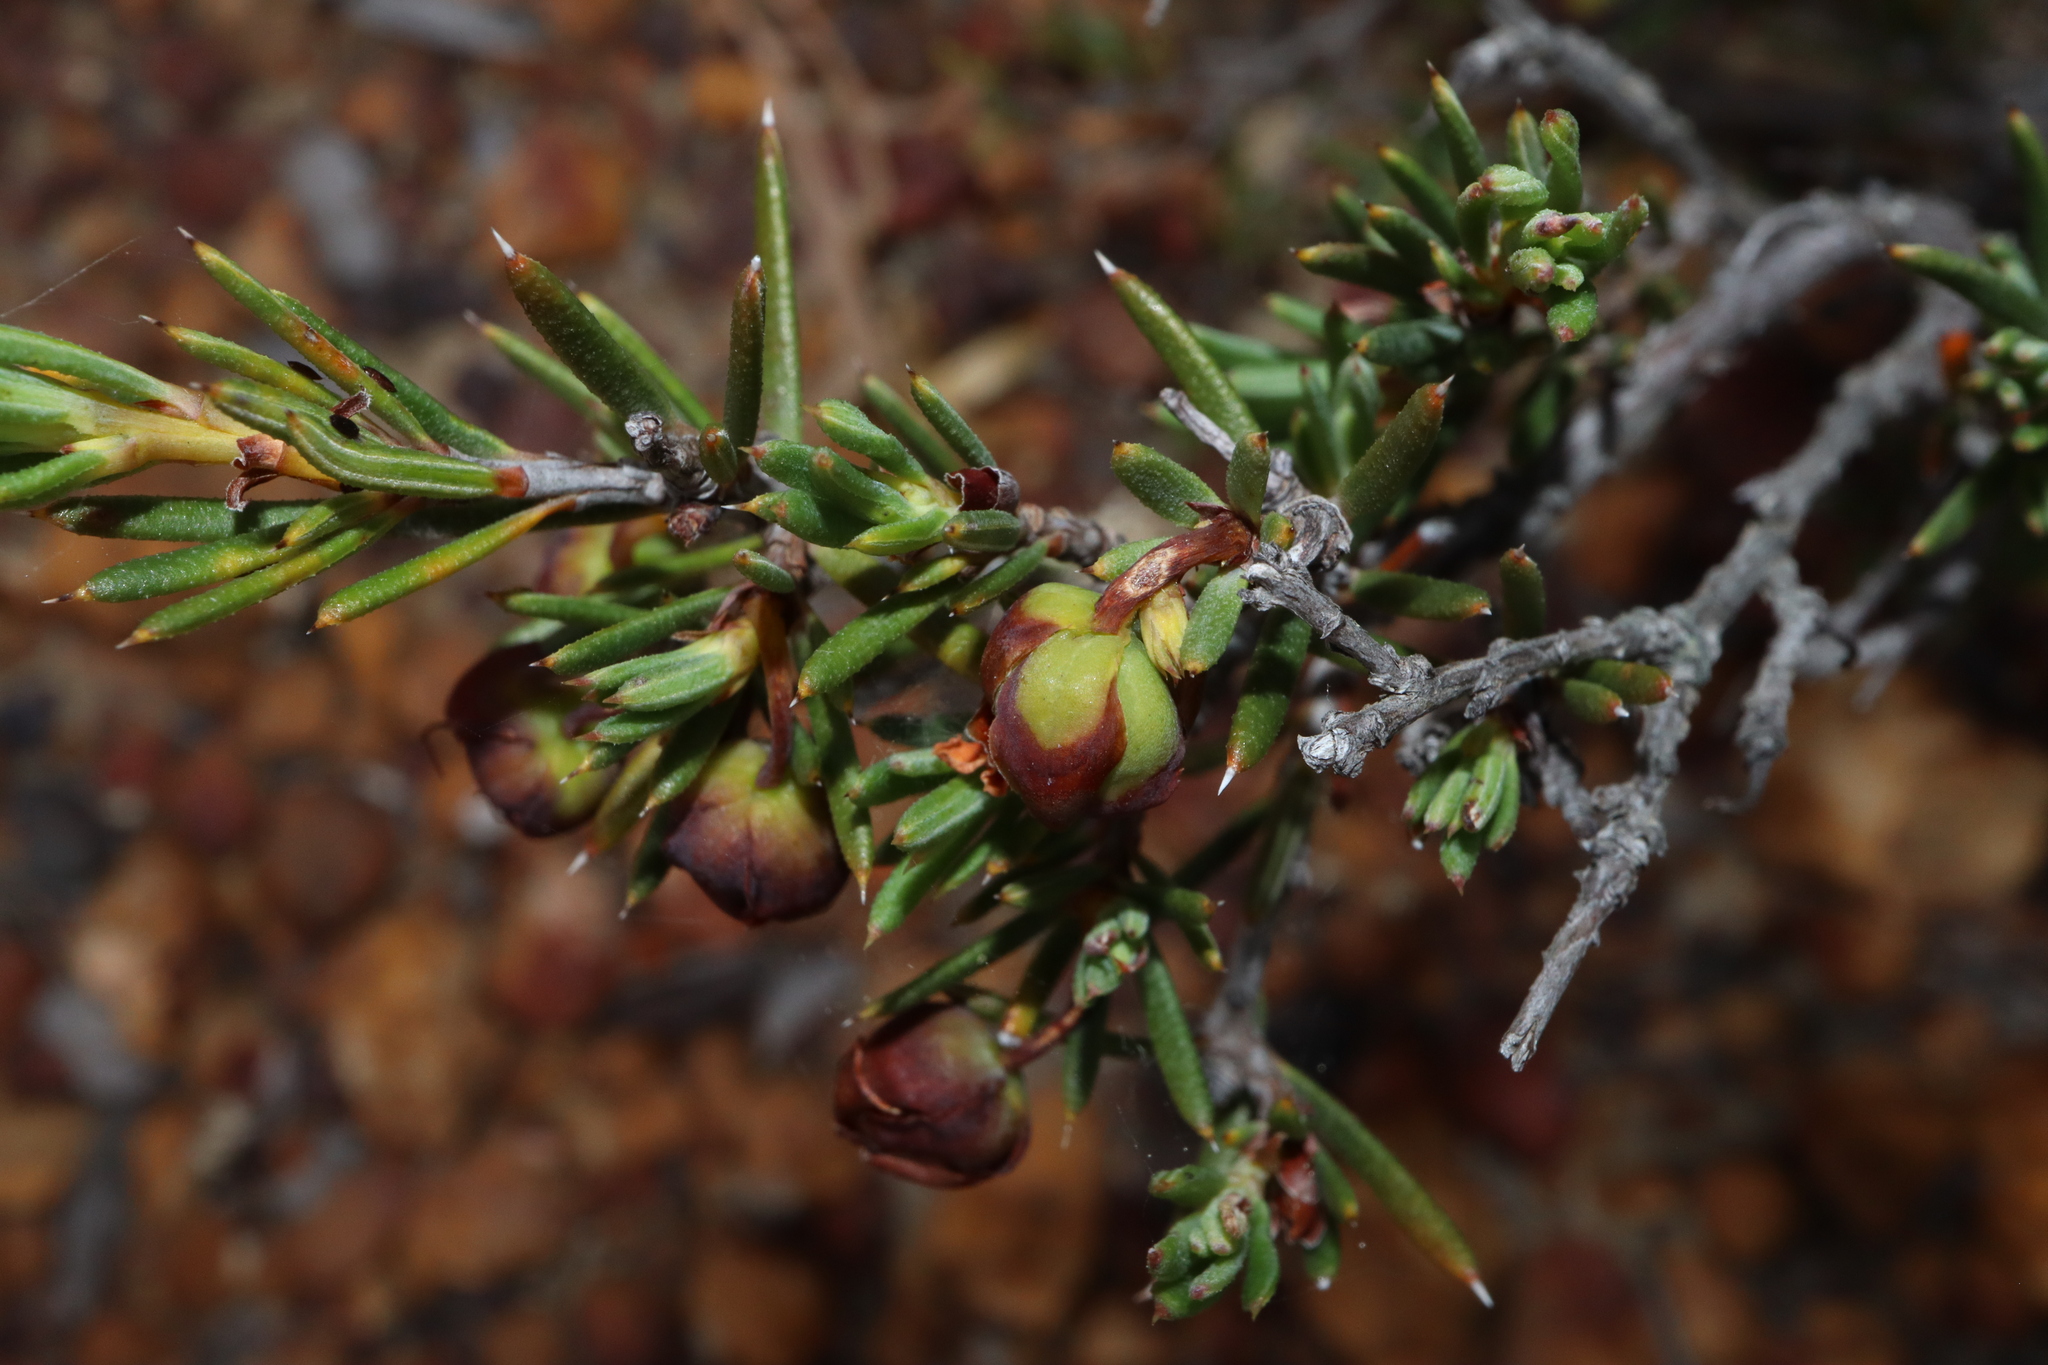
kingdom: Plantae
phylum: Tracheophyta
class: Magnoliopsida
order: Dilleniales
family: Dilleniaceae
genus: Hibbertia
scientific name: Hibbertia exasperata
